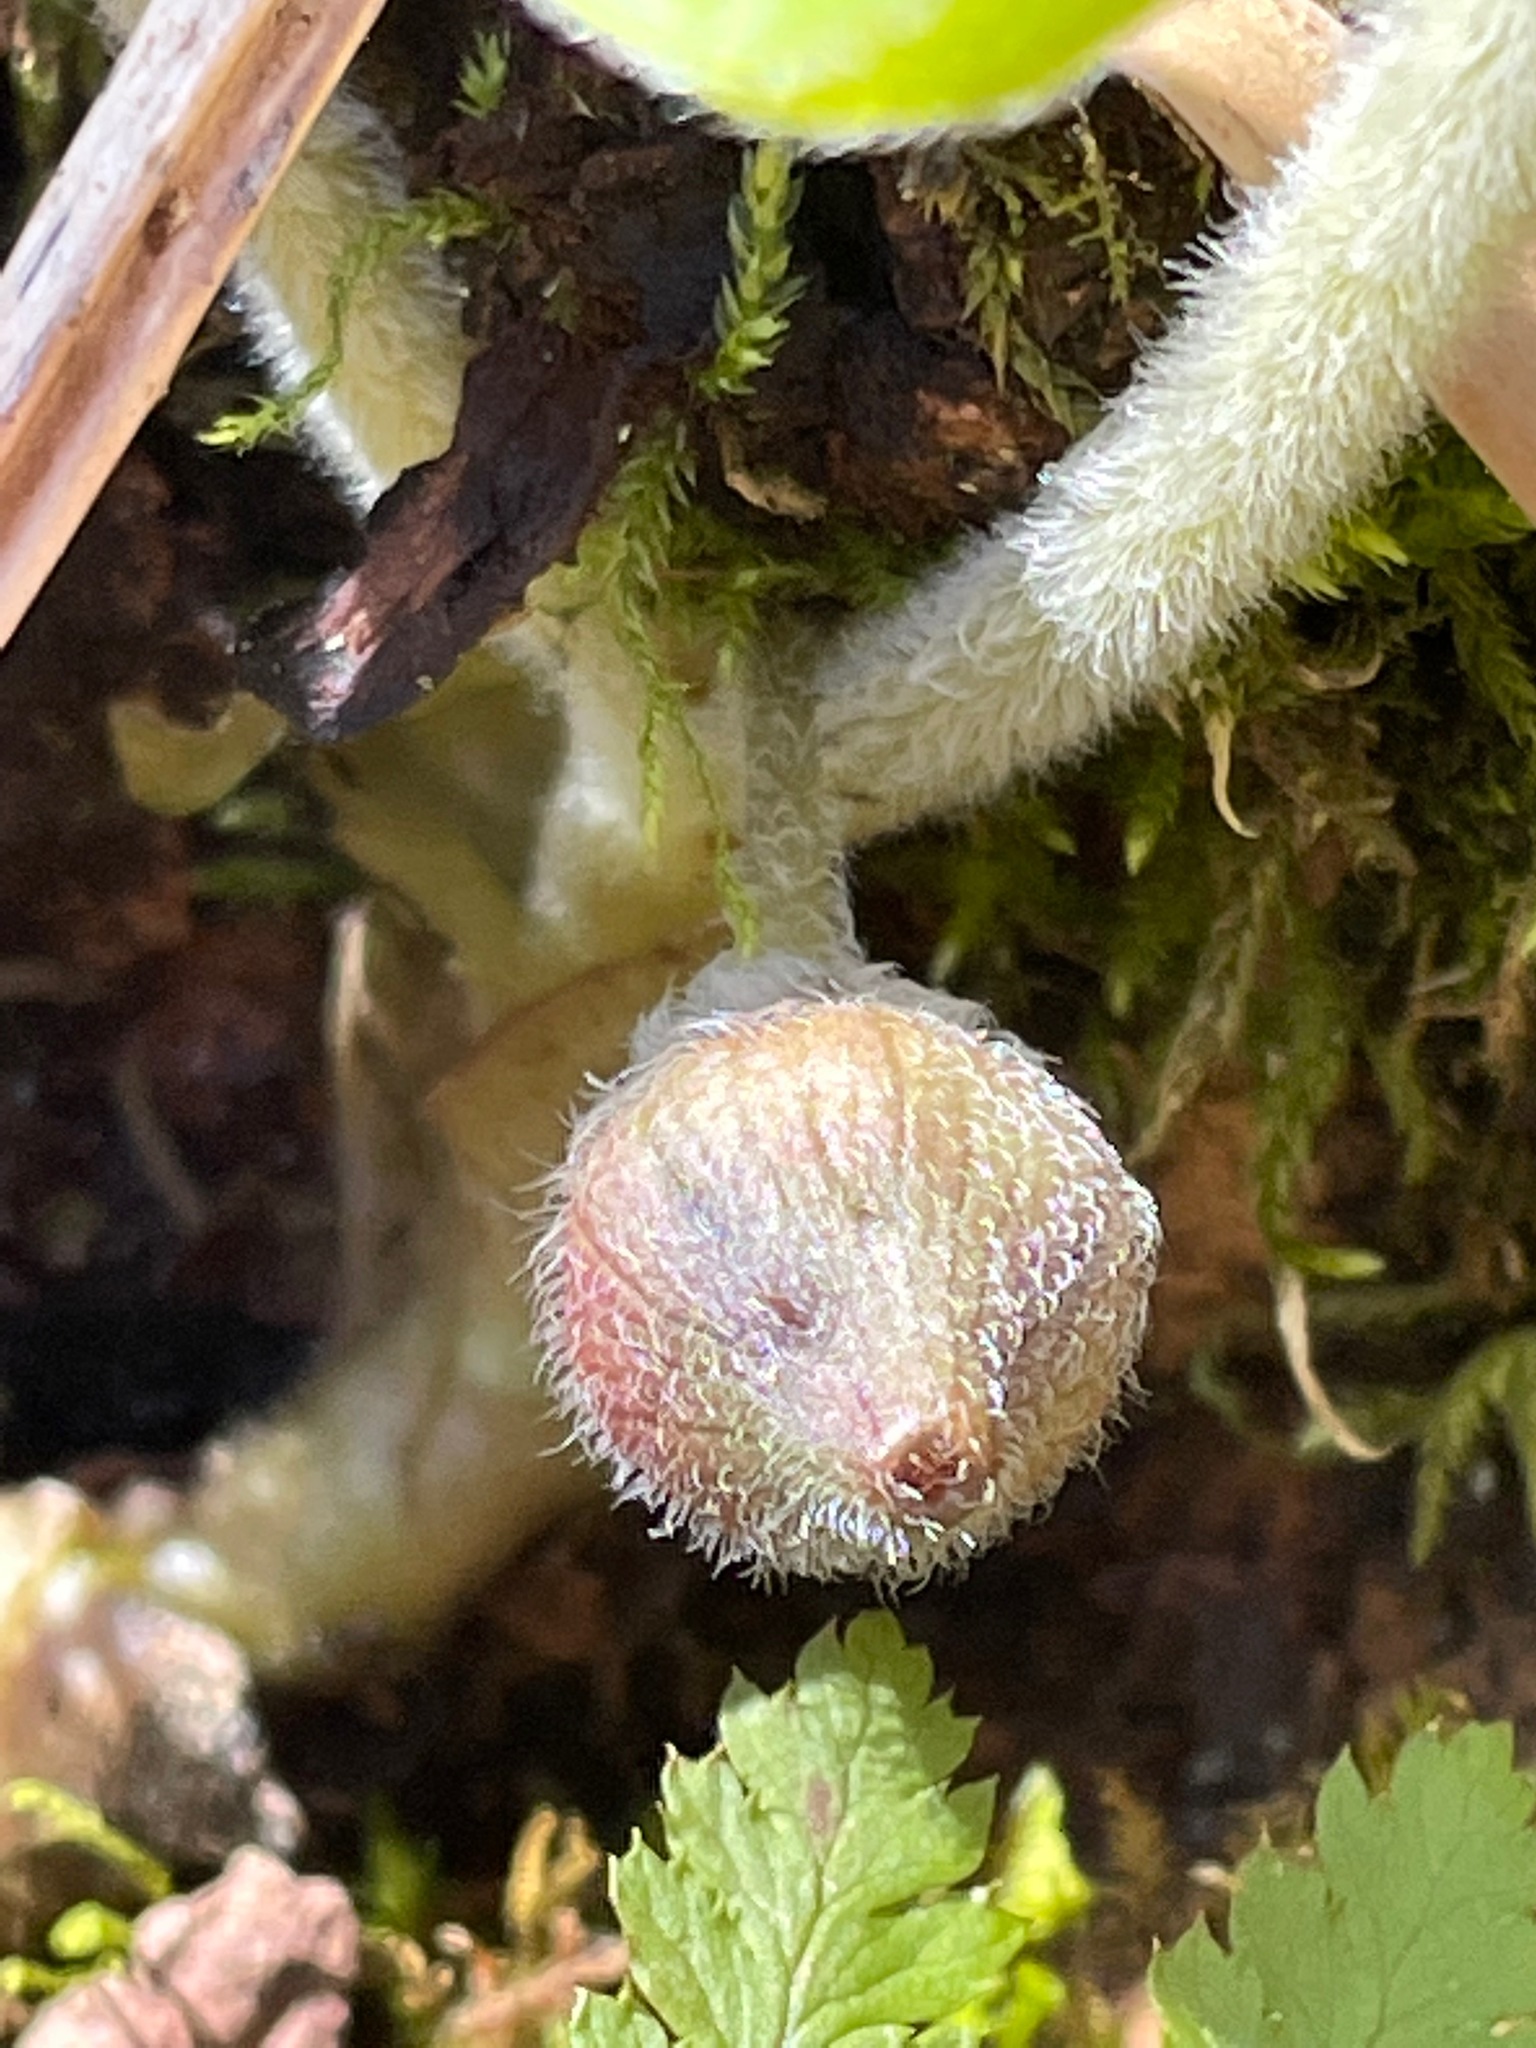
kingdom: Plantae
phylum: Tracheophyta
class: Magnoliopsida
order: Piperales
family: Aristolochiaceae
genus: Asarum
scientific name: Asarum canadense
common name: Wild ginger
